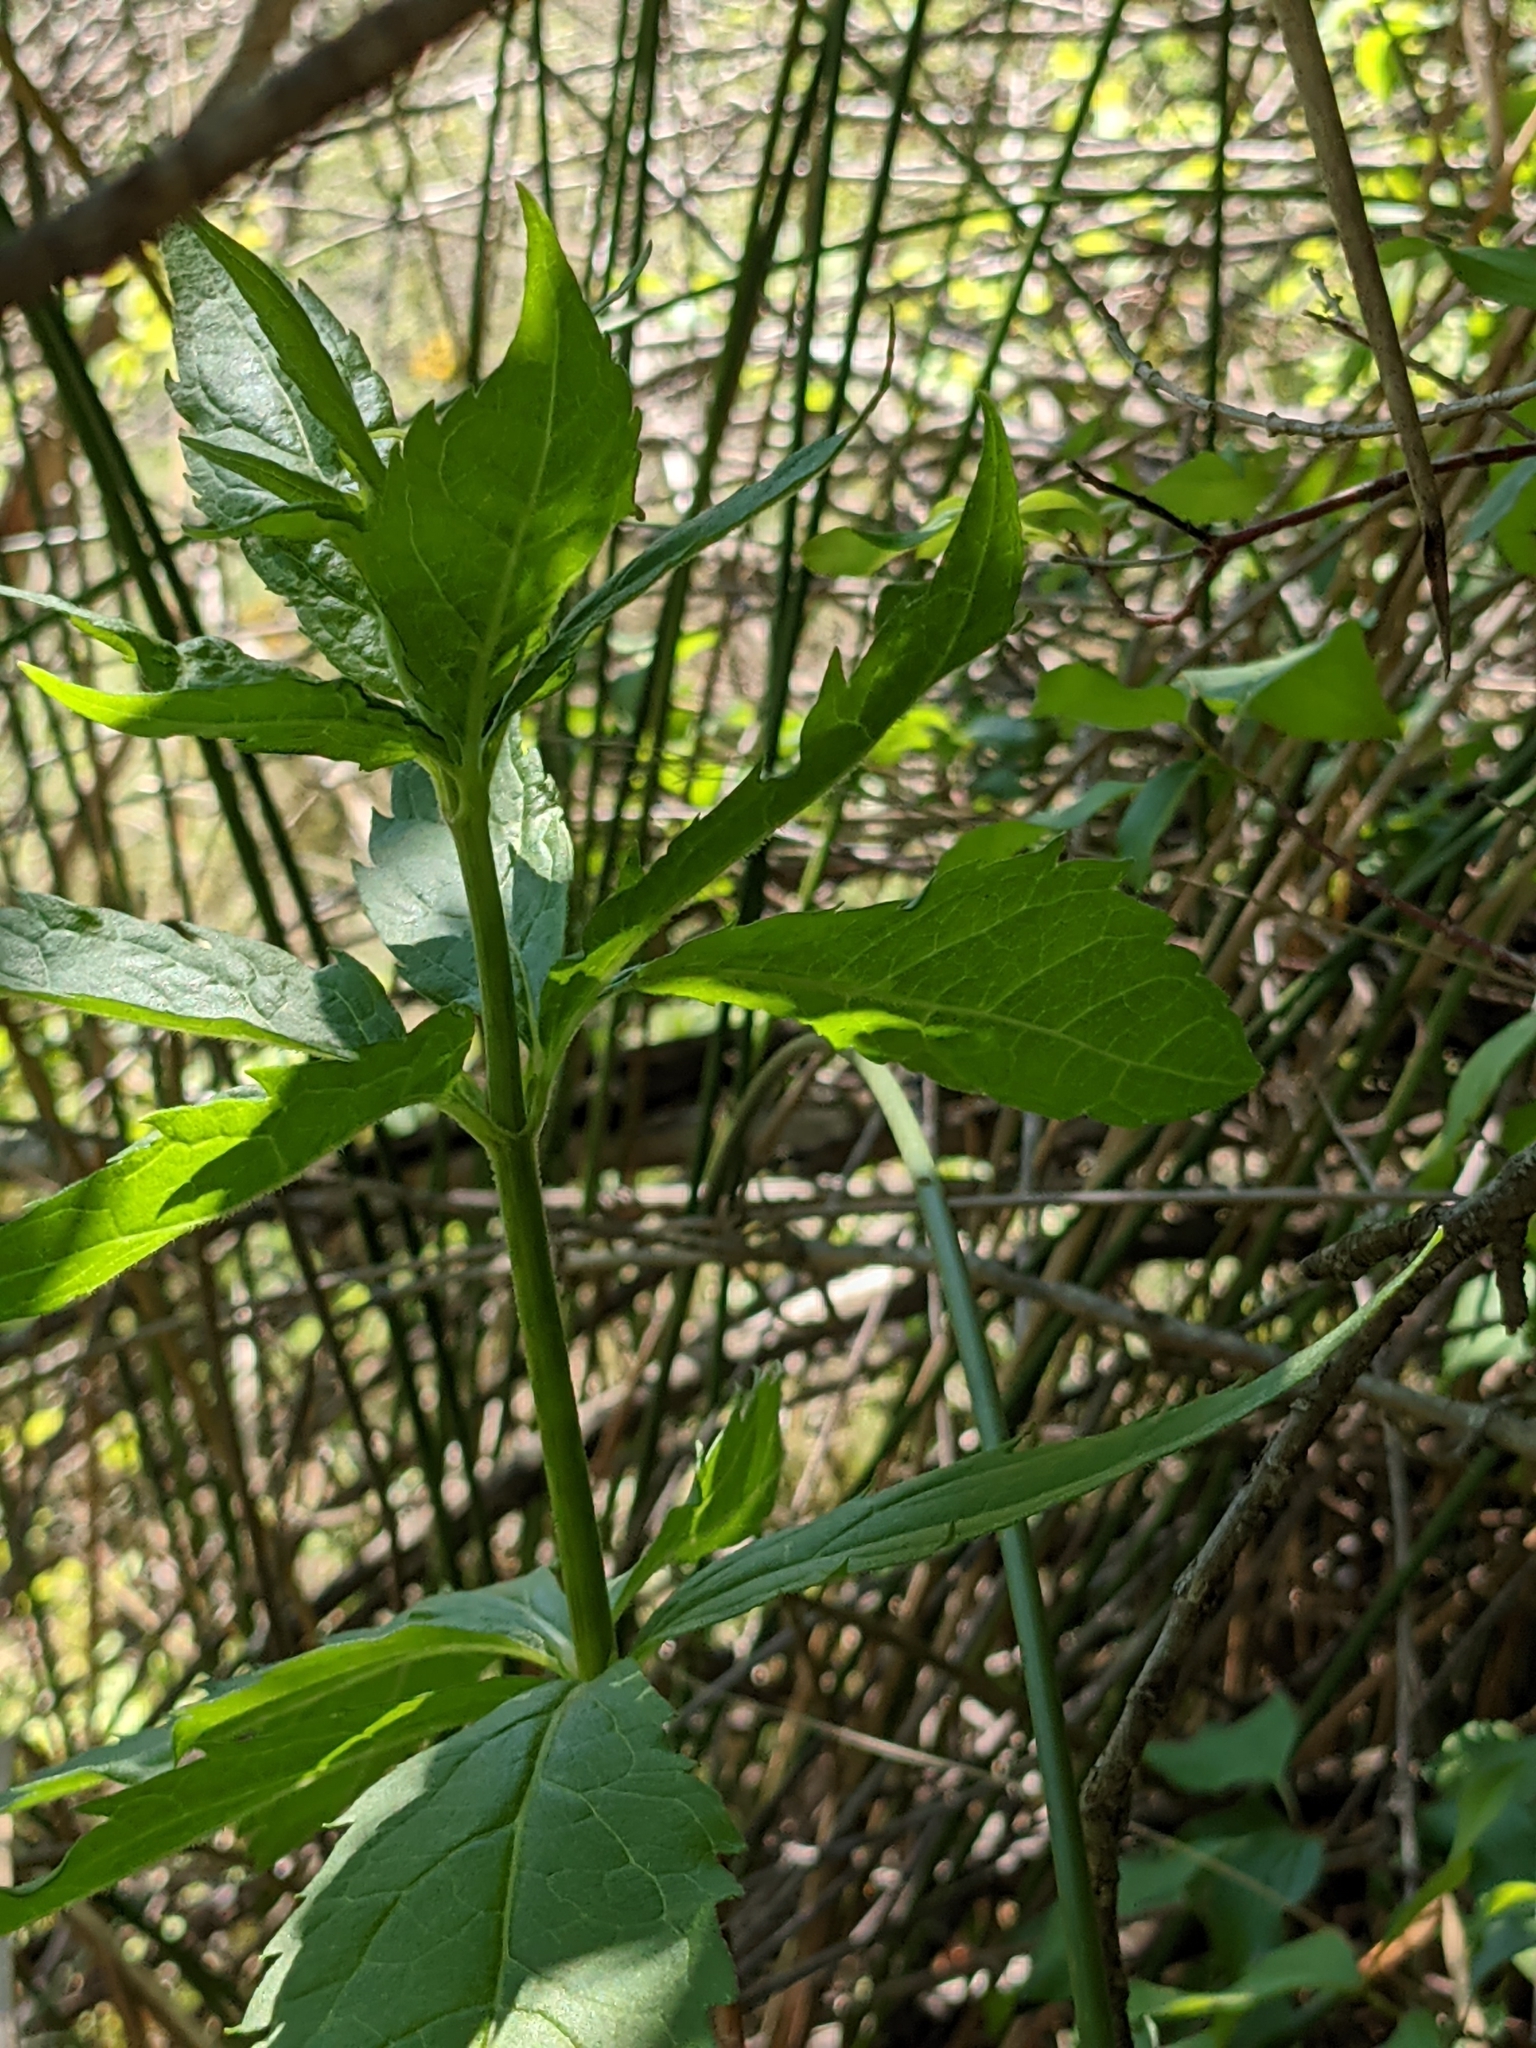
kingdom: Plantae
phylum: Tracheophyta
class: Magnoliopsida
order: Asterales
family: Asteraceae
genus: Eupatorium
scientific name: Eupatorium cannabinum
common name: Hemp-agrimony
